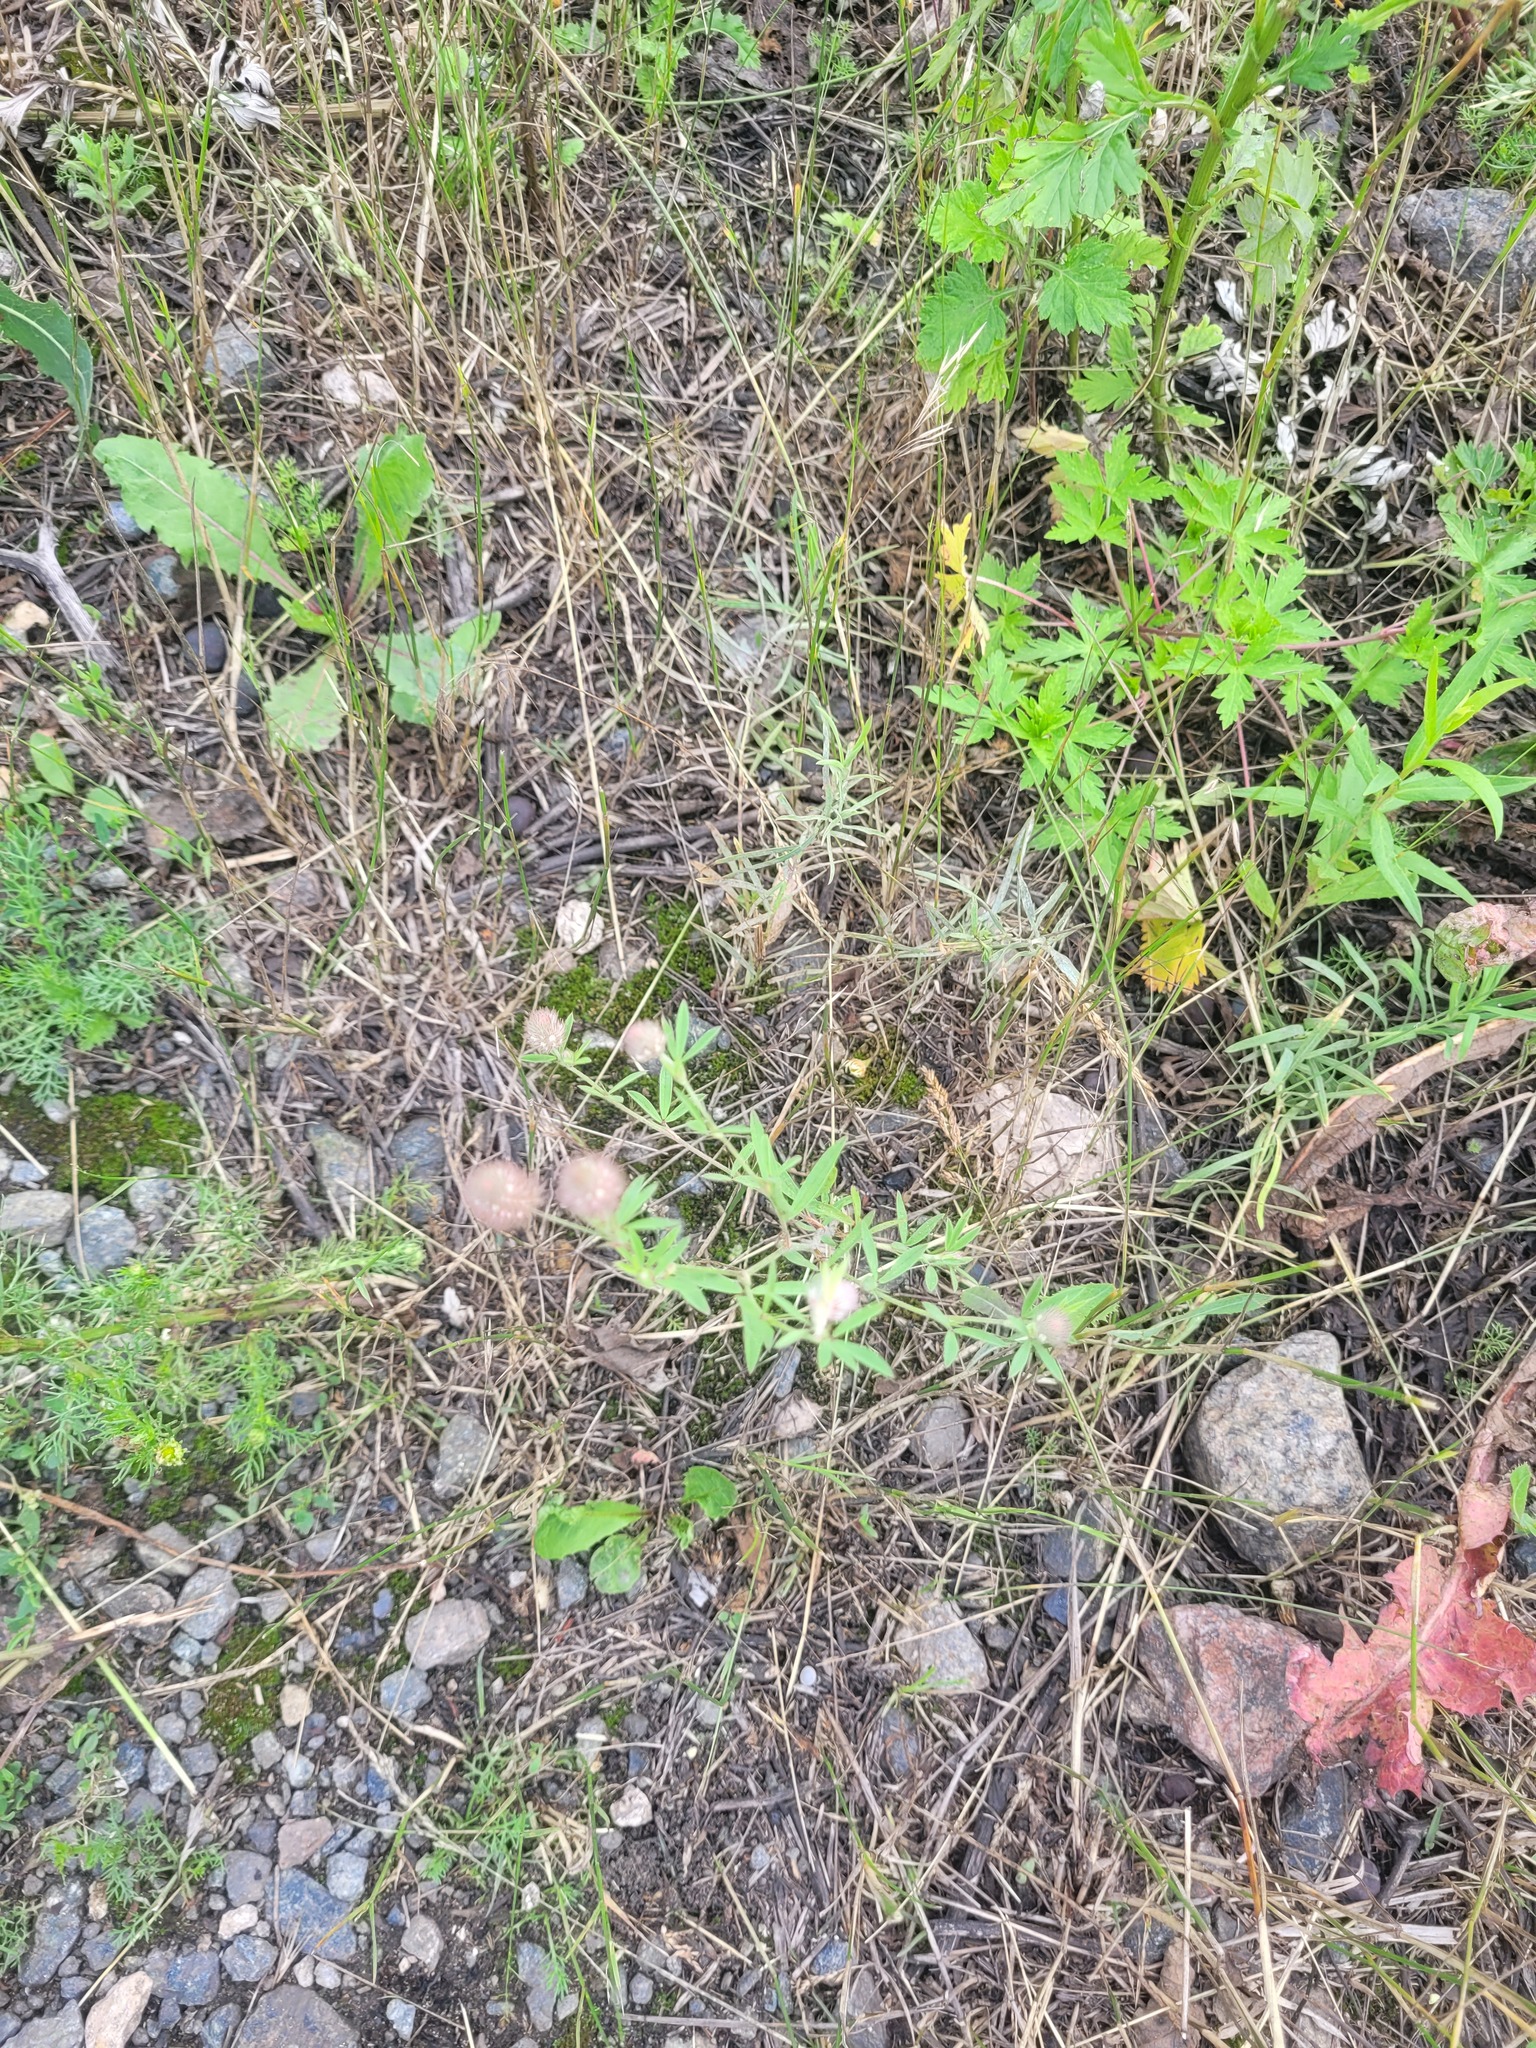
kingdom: Plantae
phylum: Tracheophyta
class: Magnoliopsida
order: Fabales
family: Fabaceae
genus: Trifolium
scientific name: Trifolium arvense
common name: Hare's-foot clover
